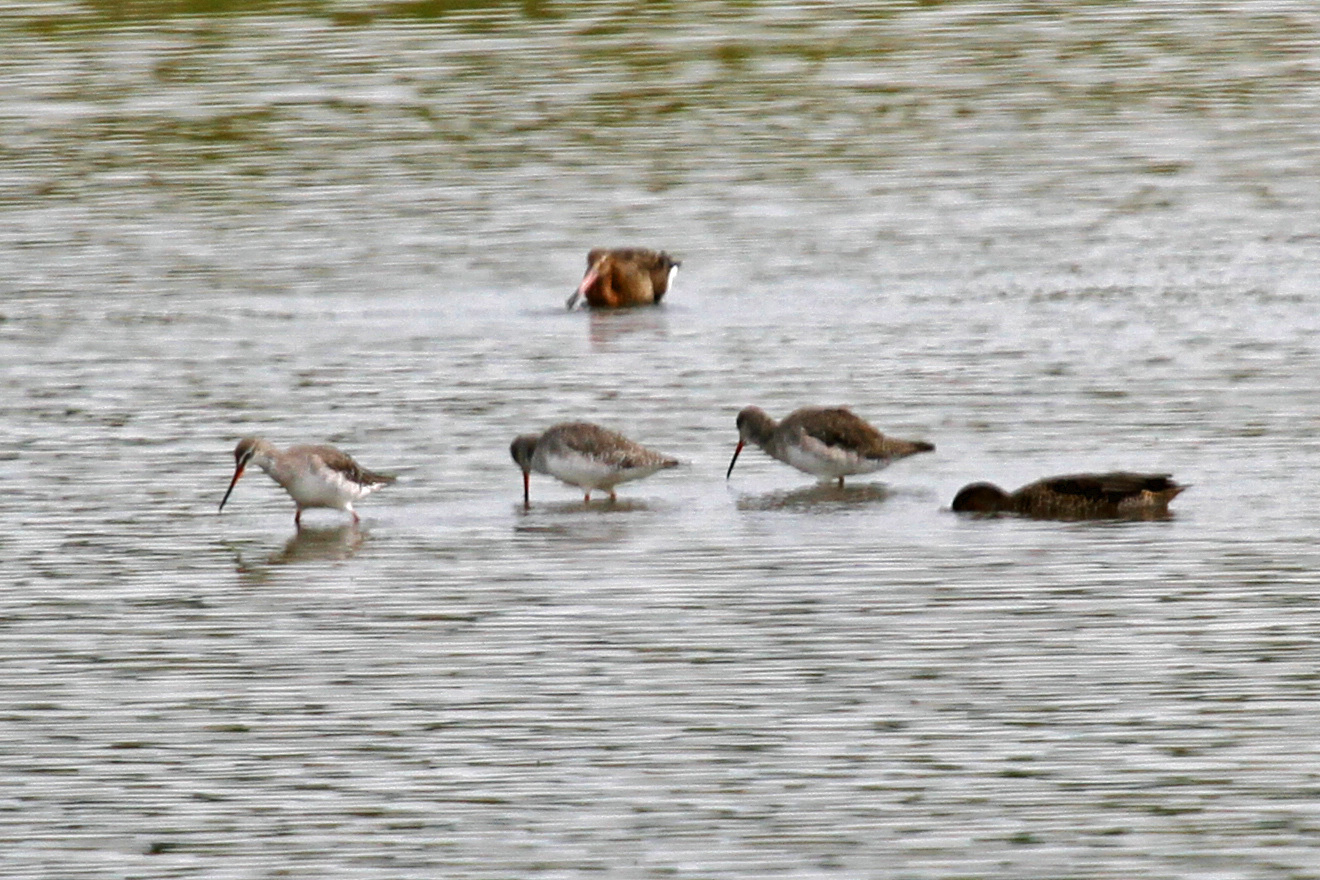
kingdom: Animalia
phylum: Chordata
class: Aves
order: Charadriiformes
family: Scolopacidae
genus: Tringa
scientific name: Tringa erythropus
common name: Spotted redshank
